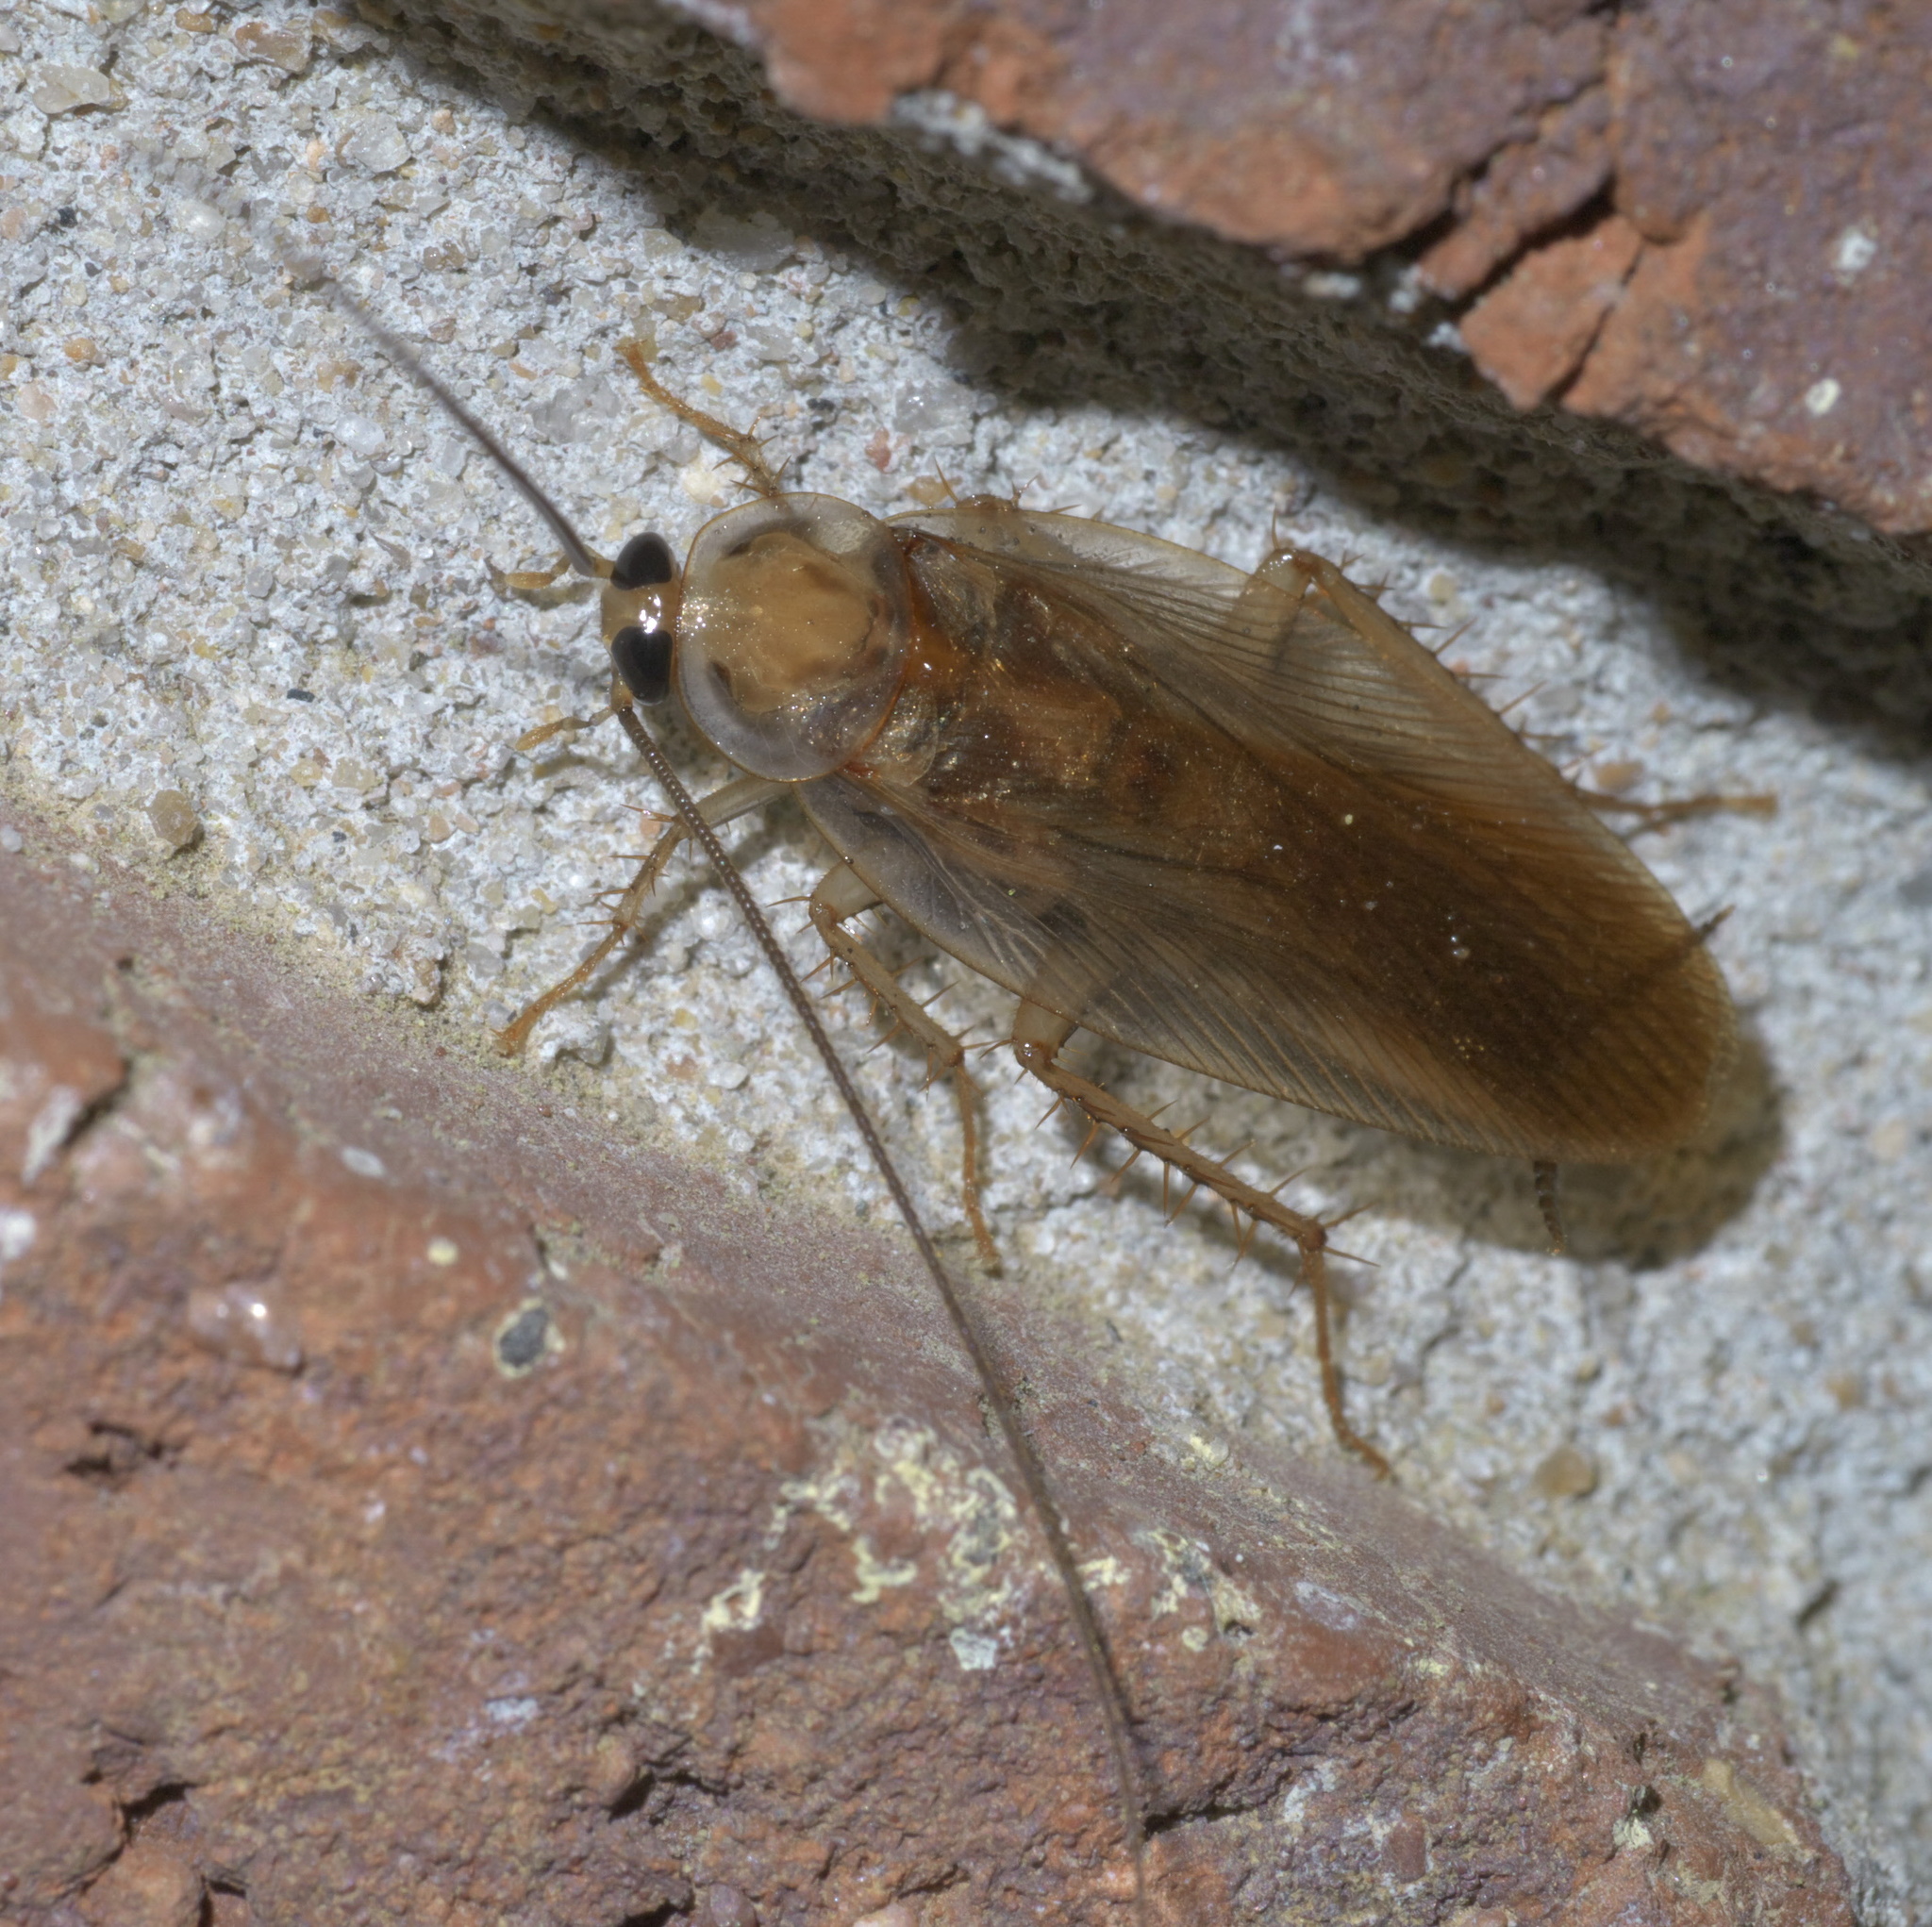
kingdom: Animalia
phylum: Arthropoda
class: Insecta
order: Blattodea
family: Ectobiidae
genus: Parcoblatta
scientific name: Parcoblatta zebra
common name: Banded wood cockroach
